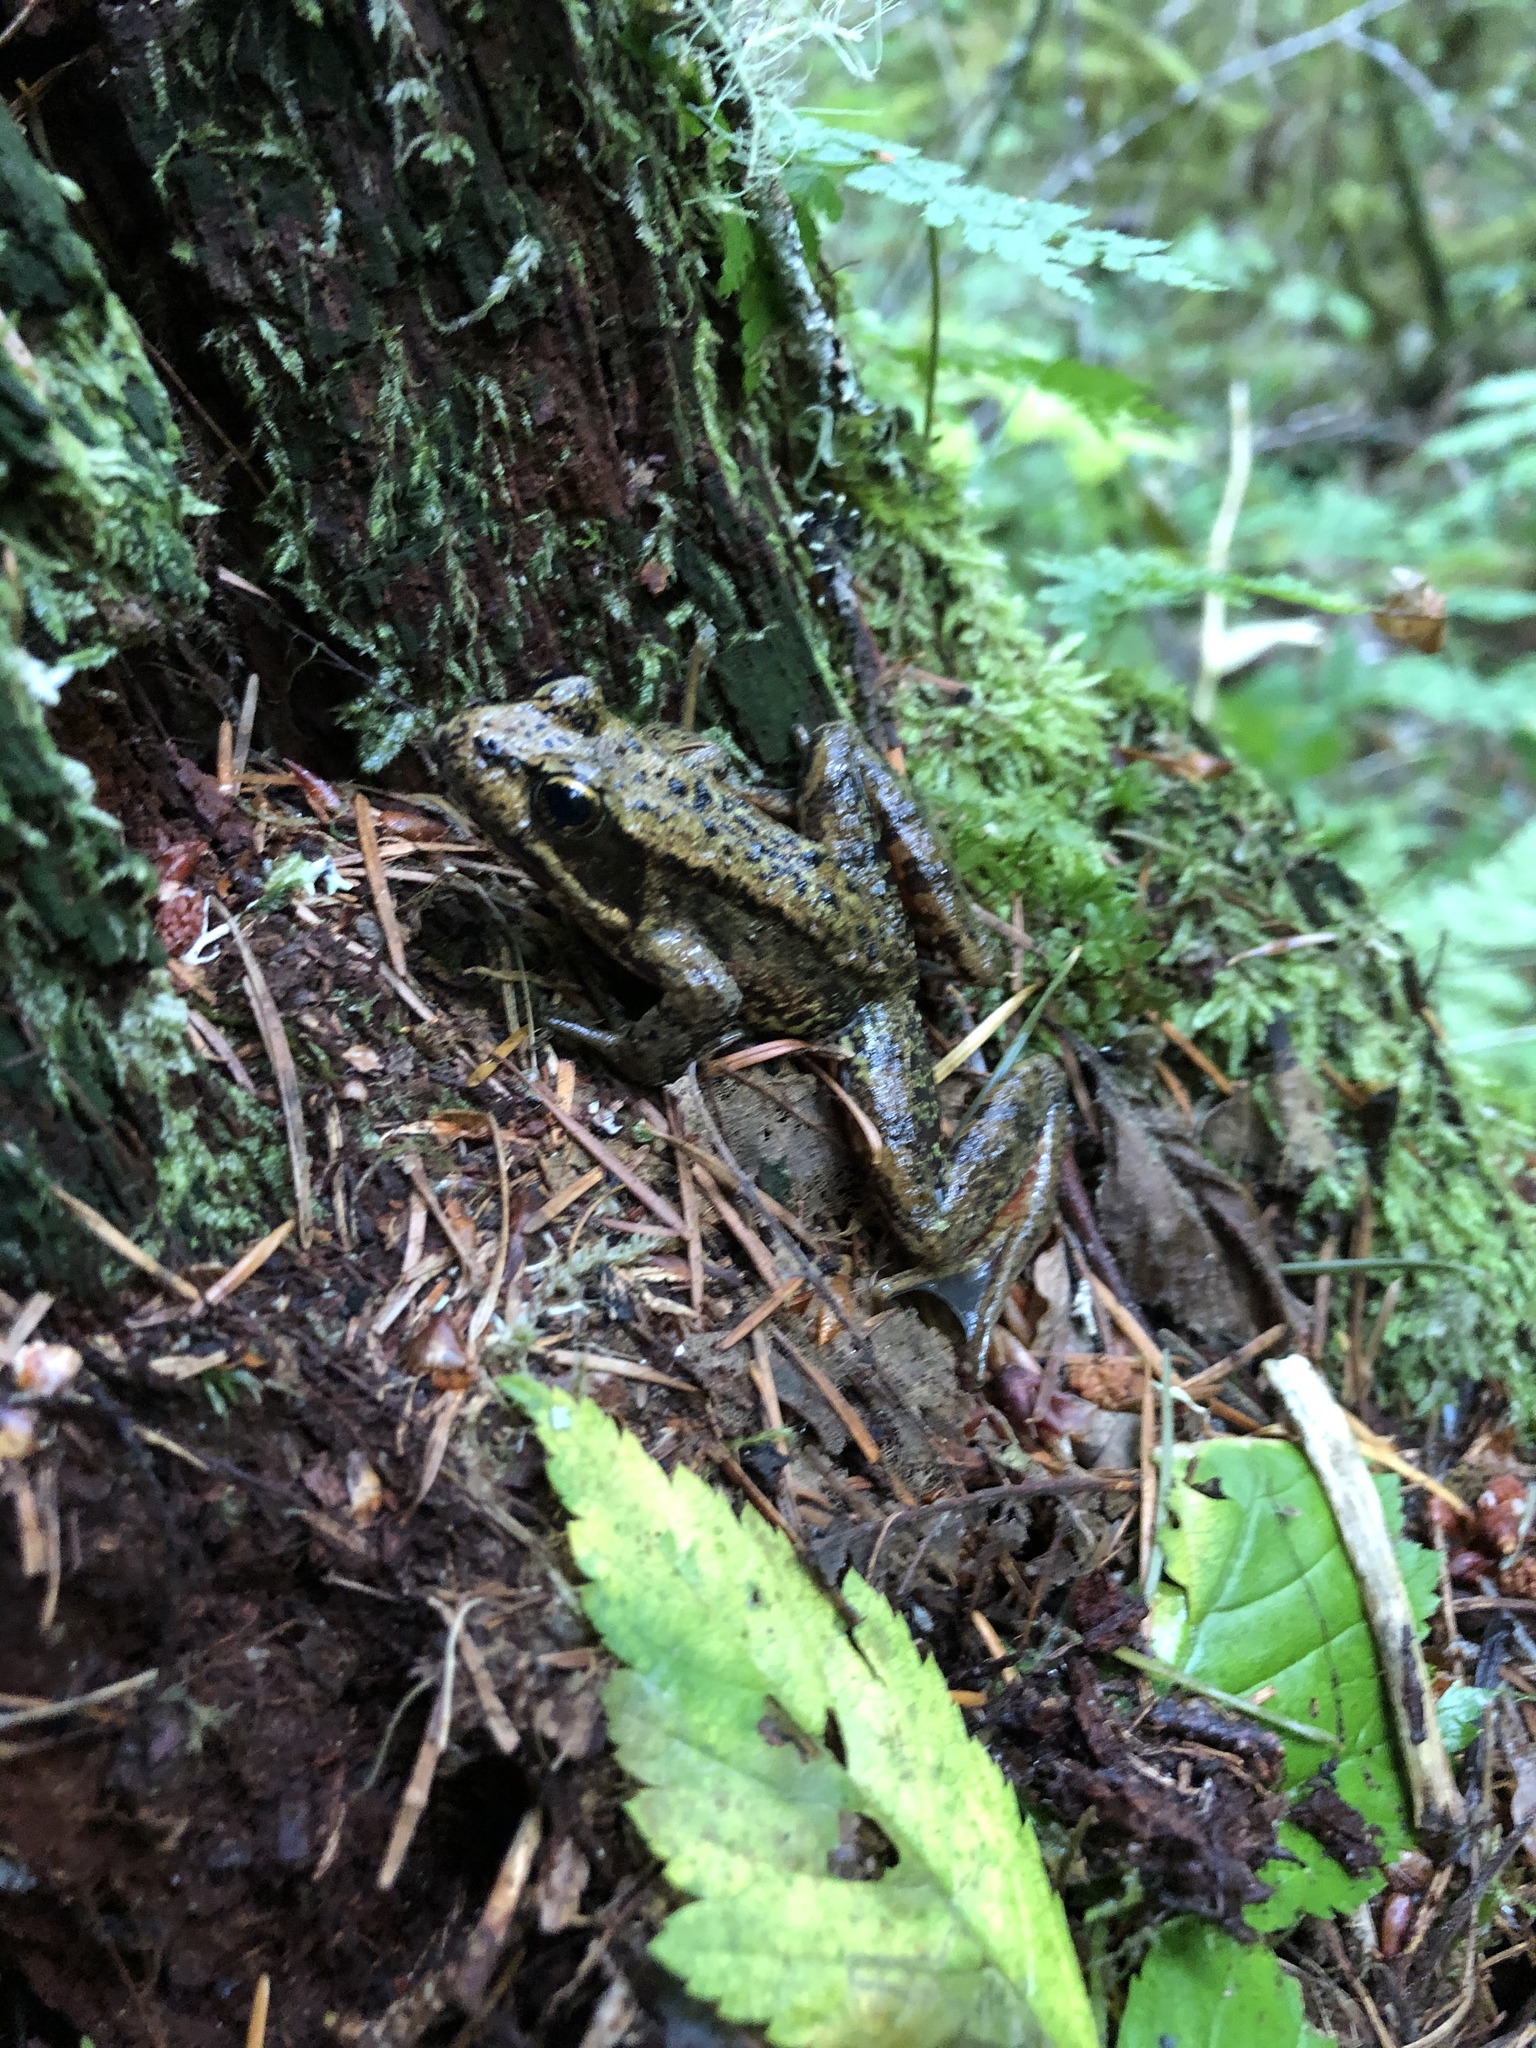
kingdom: Animalia
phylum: Chordata
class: Amphibia
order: Anura
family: Ranidae
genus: Rana
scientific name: Rana aurora
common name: Red-legged frog
